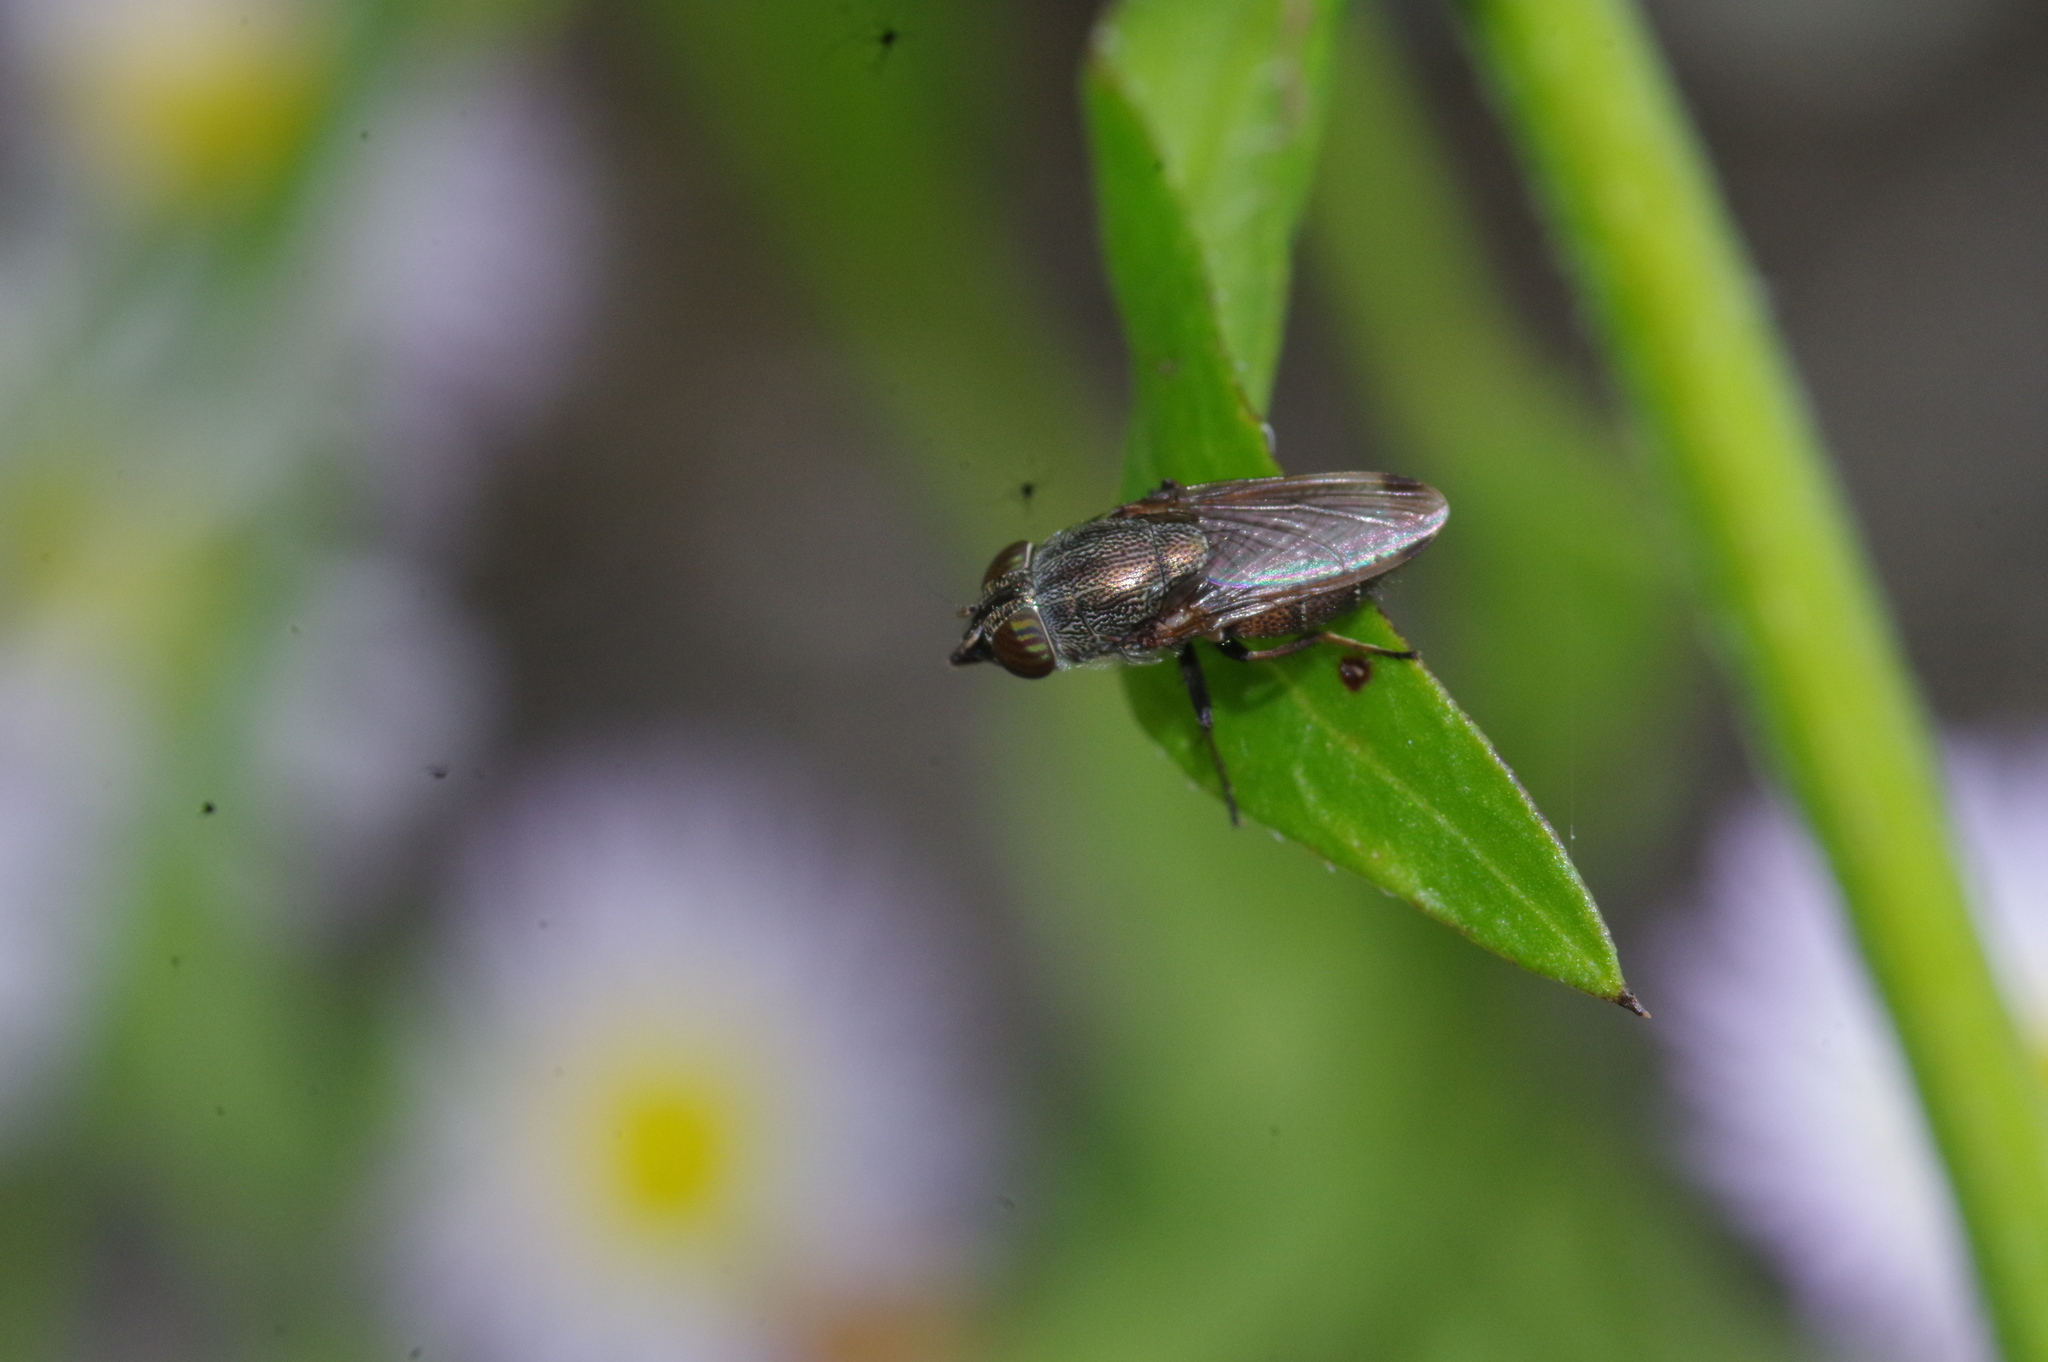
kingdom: Animalia
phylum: Arthropoda
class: Insecta
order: Diptera
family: Calliphoridae
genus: Rhinia
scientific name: Rhinia obsoleta
